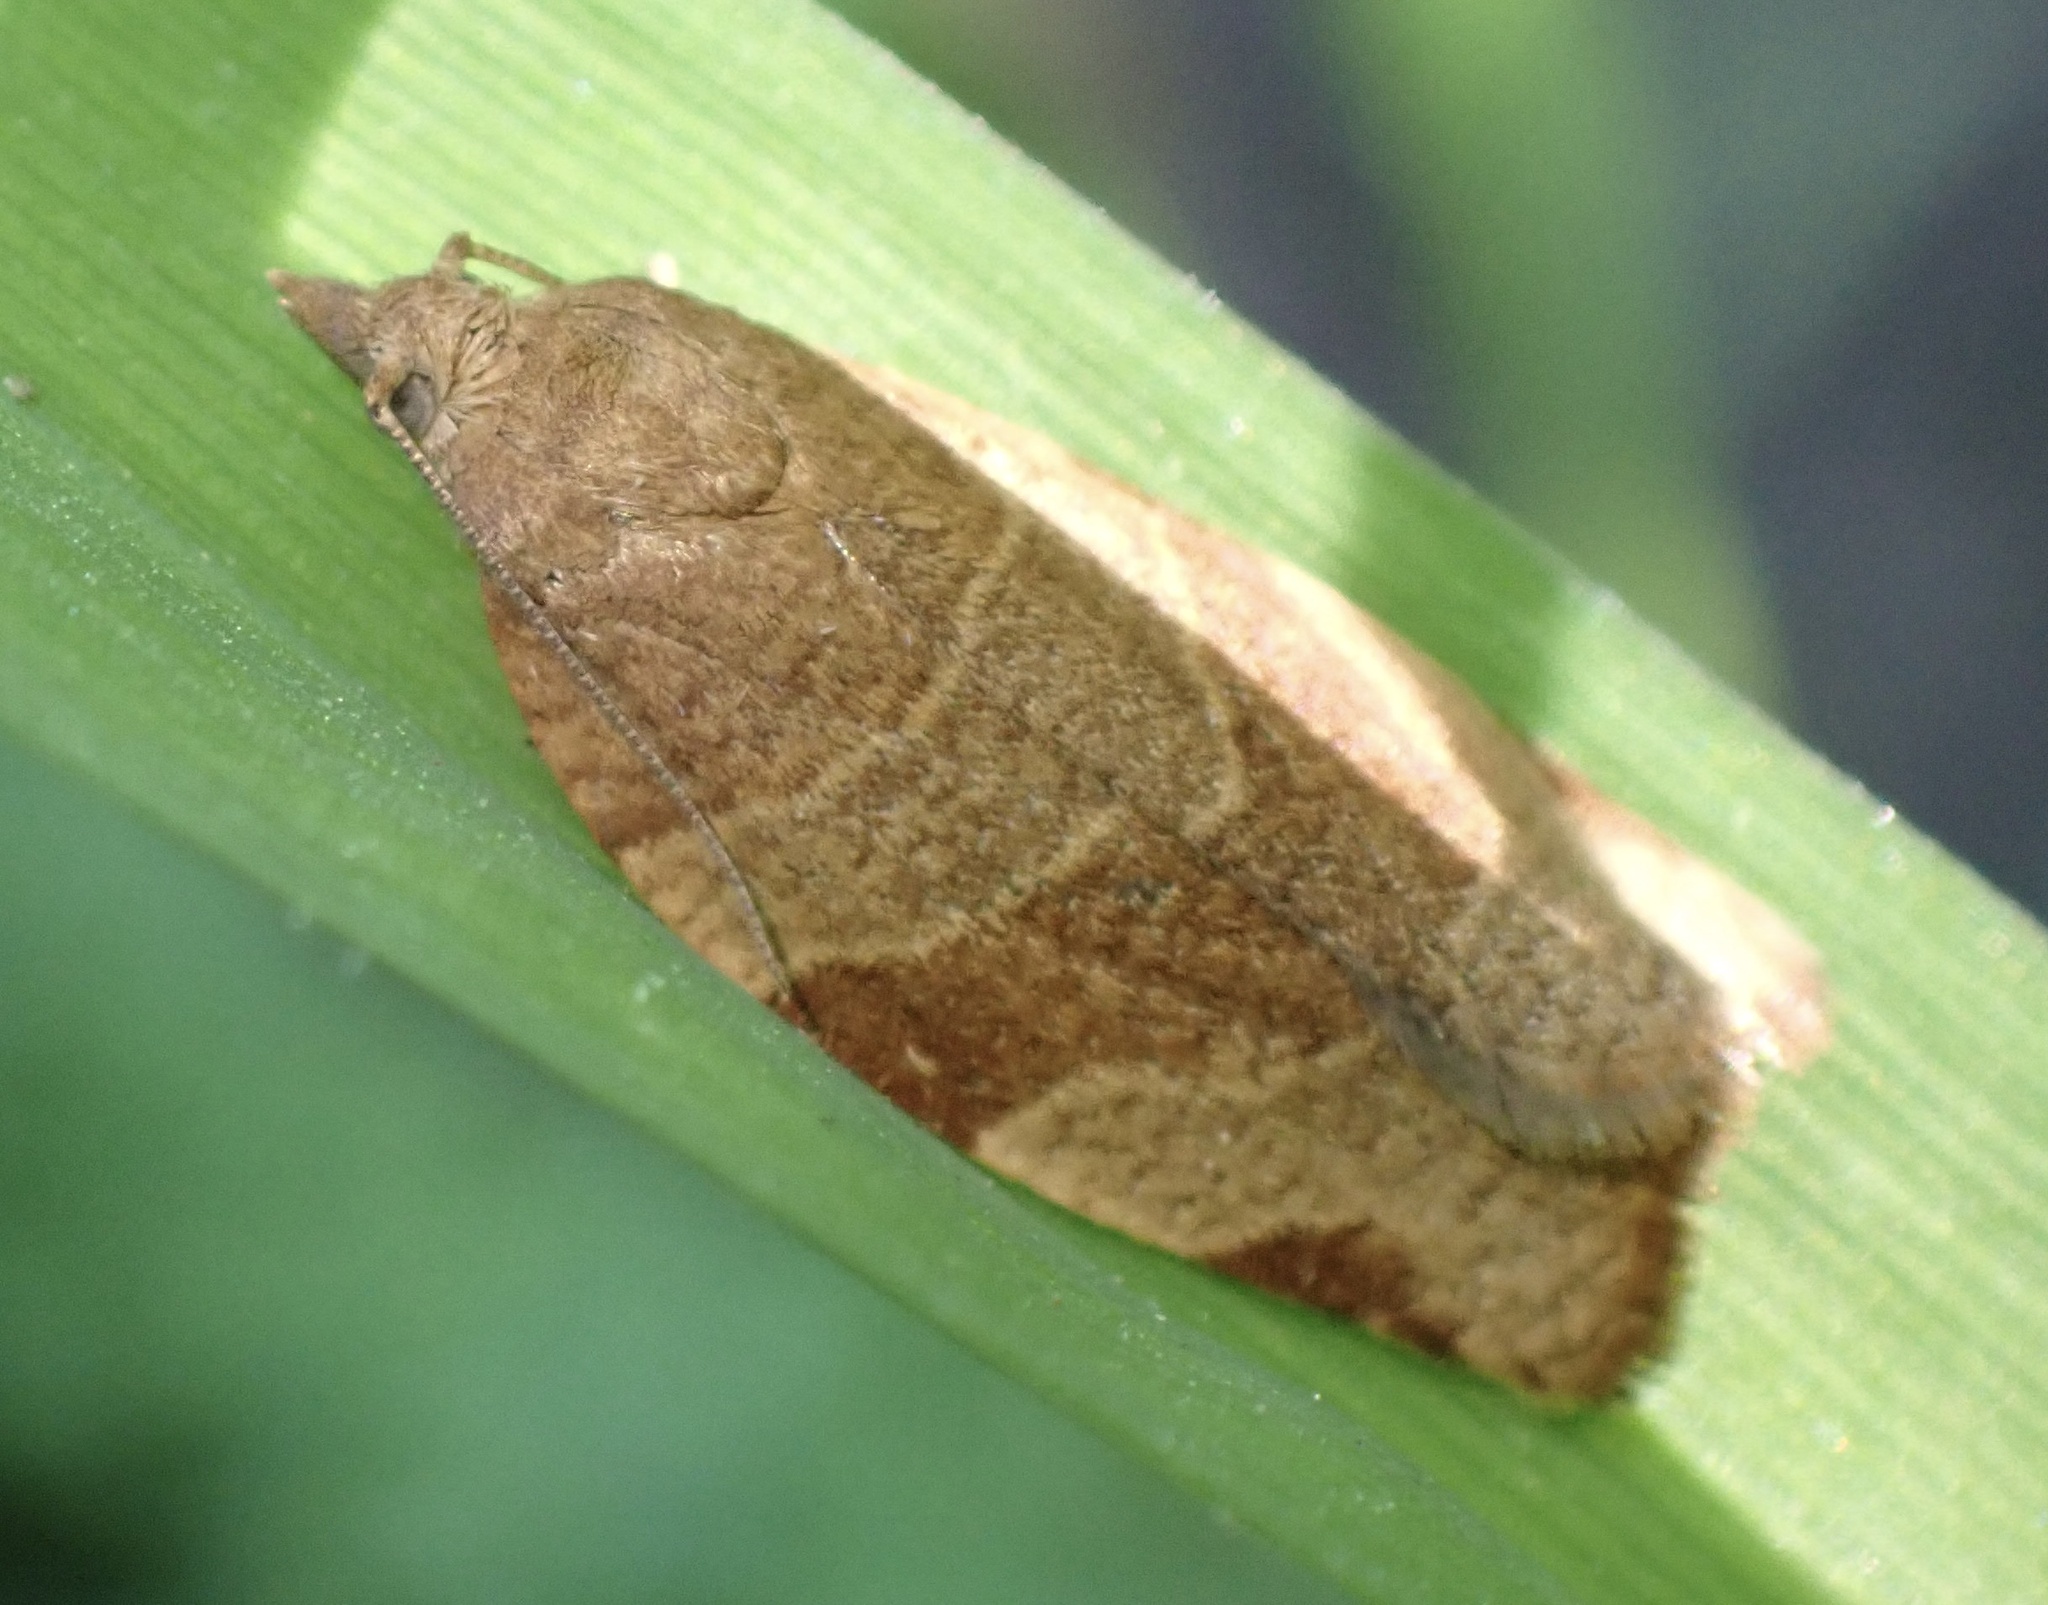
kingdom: Animalia
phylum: Arthropoda
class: Insecta
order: Lepidoptera
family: Tortricidae
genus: Pandemis
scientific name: Pandemis cerasana
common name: Barred fruit-tree tortrix
